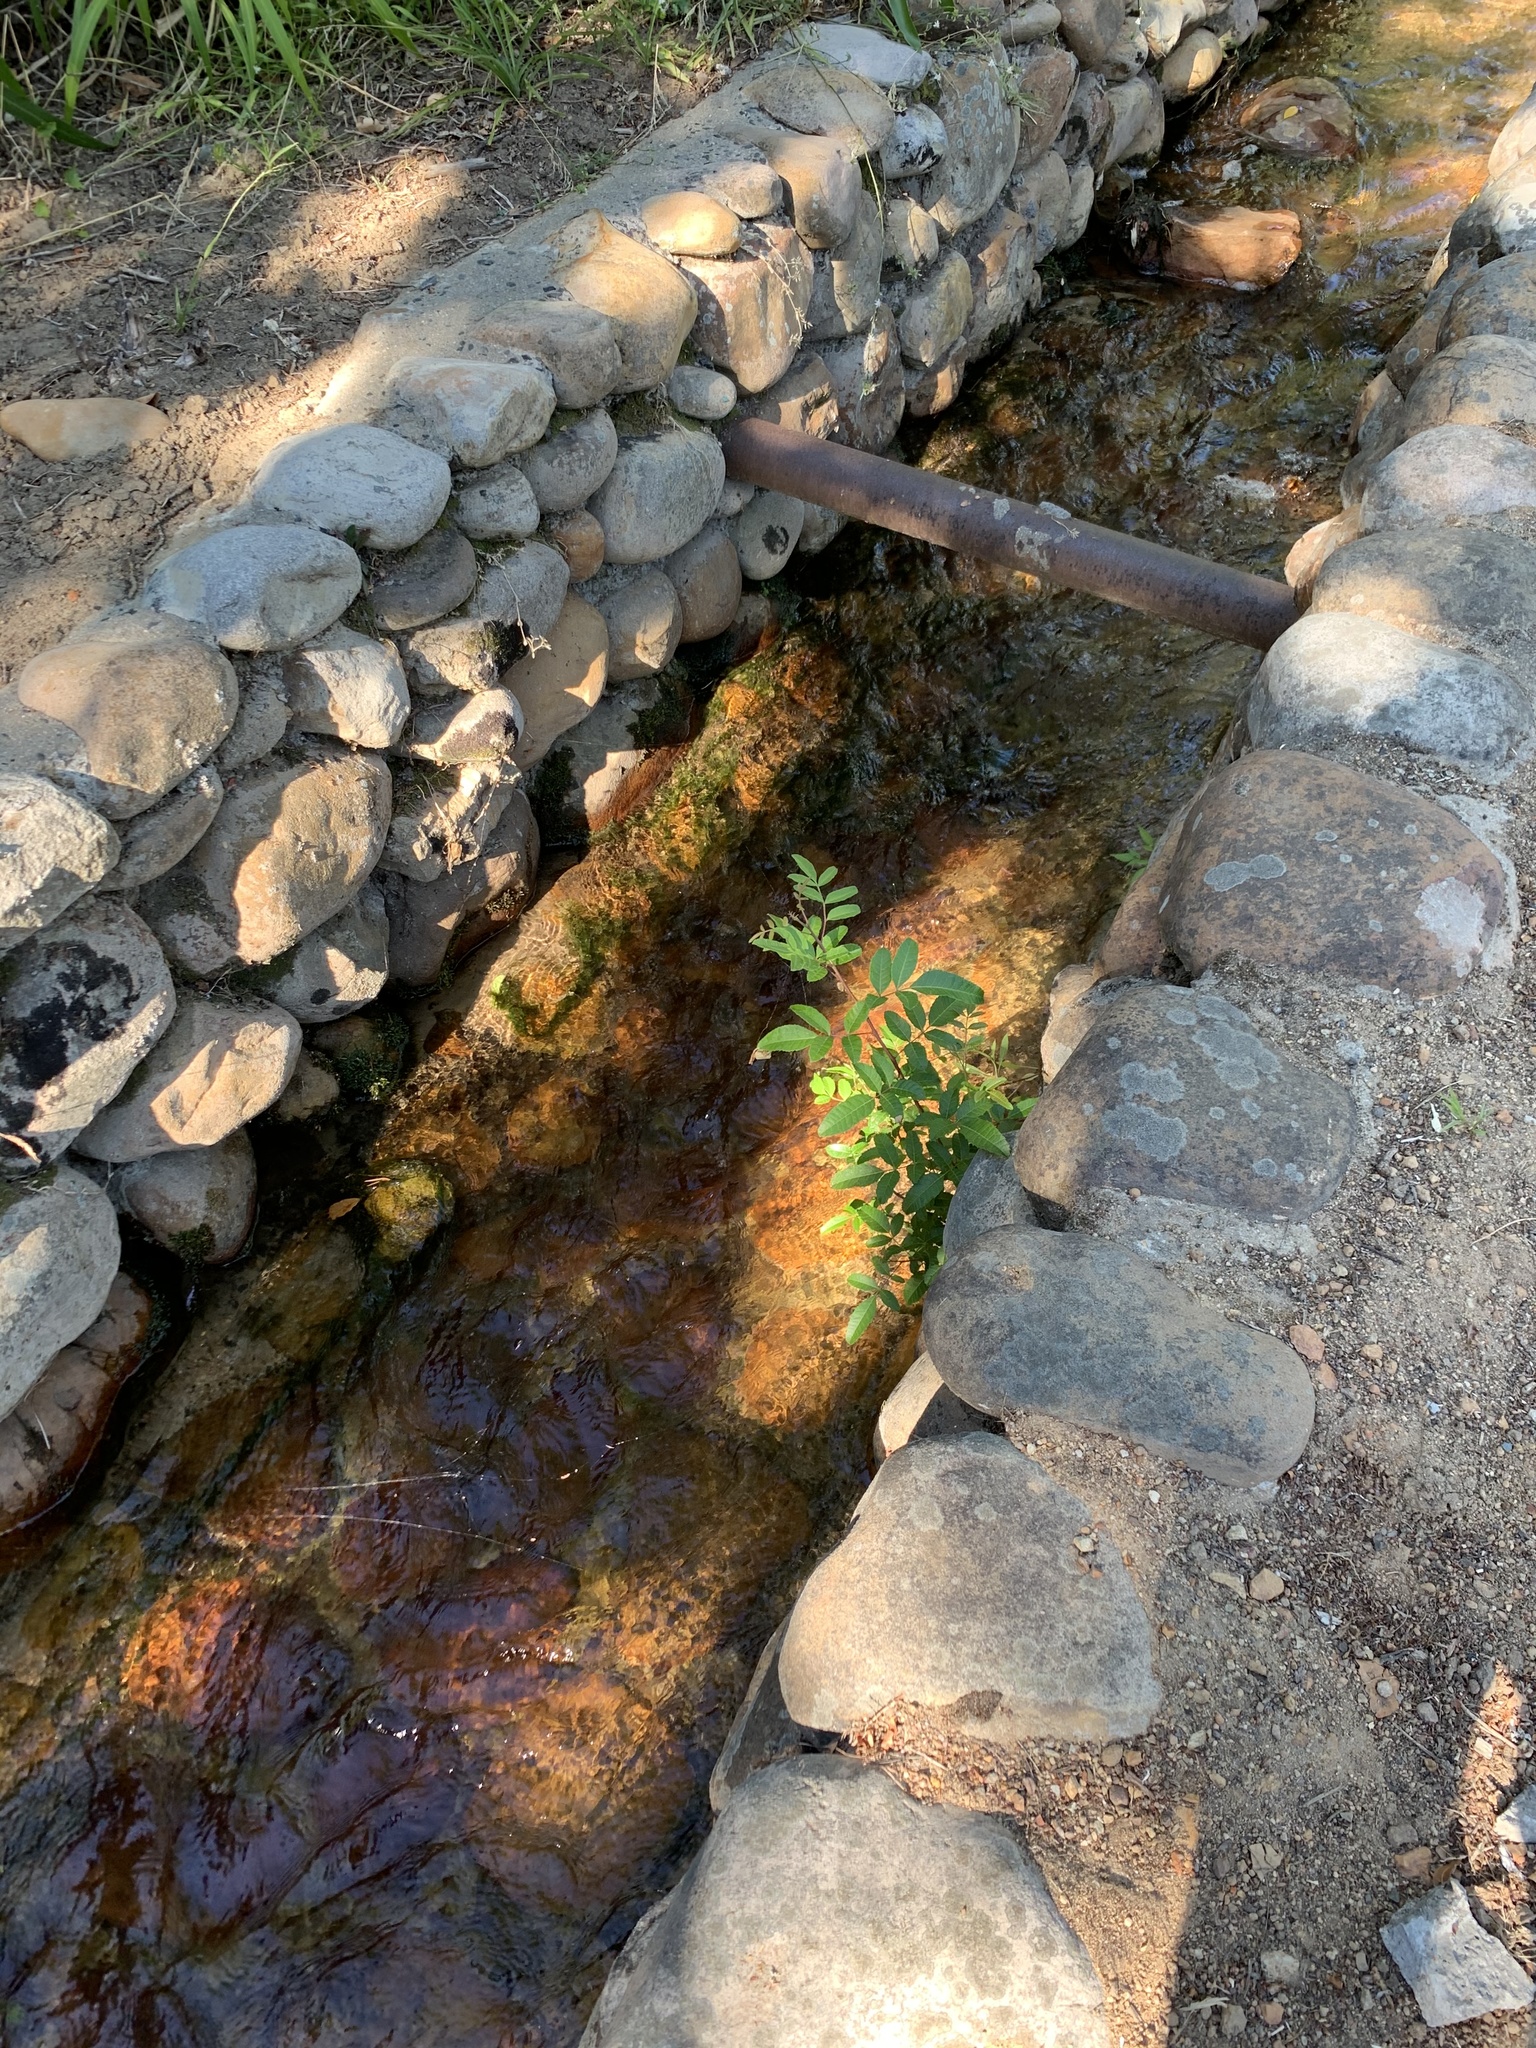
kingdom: Plantae
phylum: Tracheophyta
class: Magnoliopsida
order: Sapindales
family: Anacardiaceae
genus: Schinus
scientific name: Schinus terebinthifolia
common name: Brazilian peppertree
